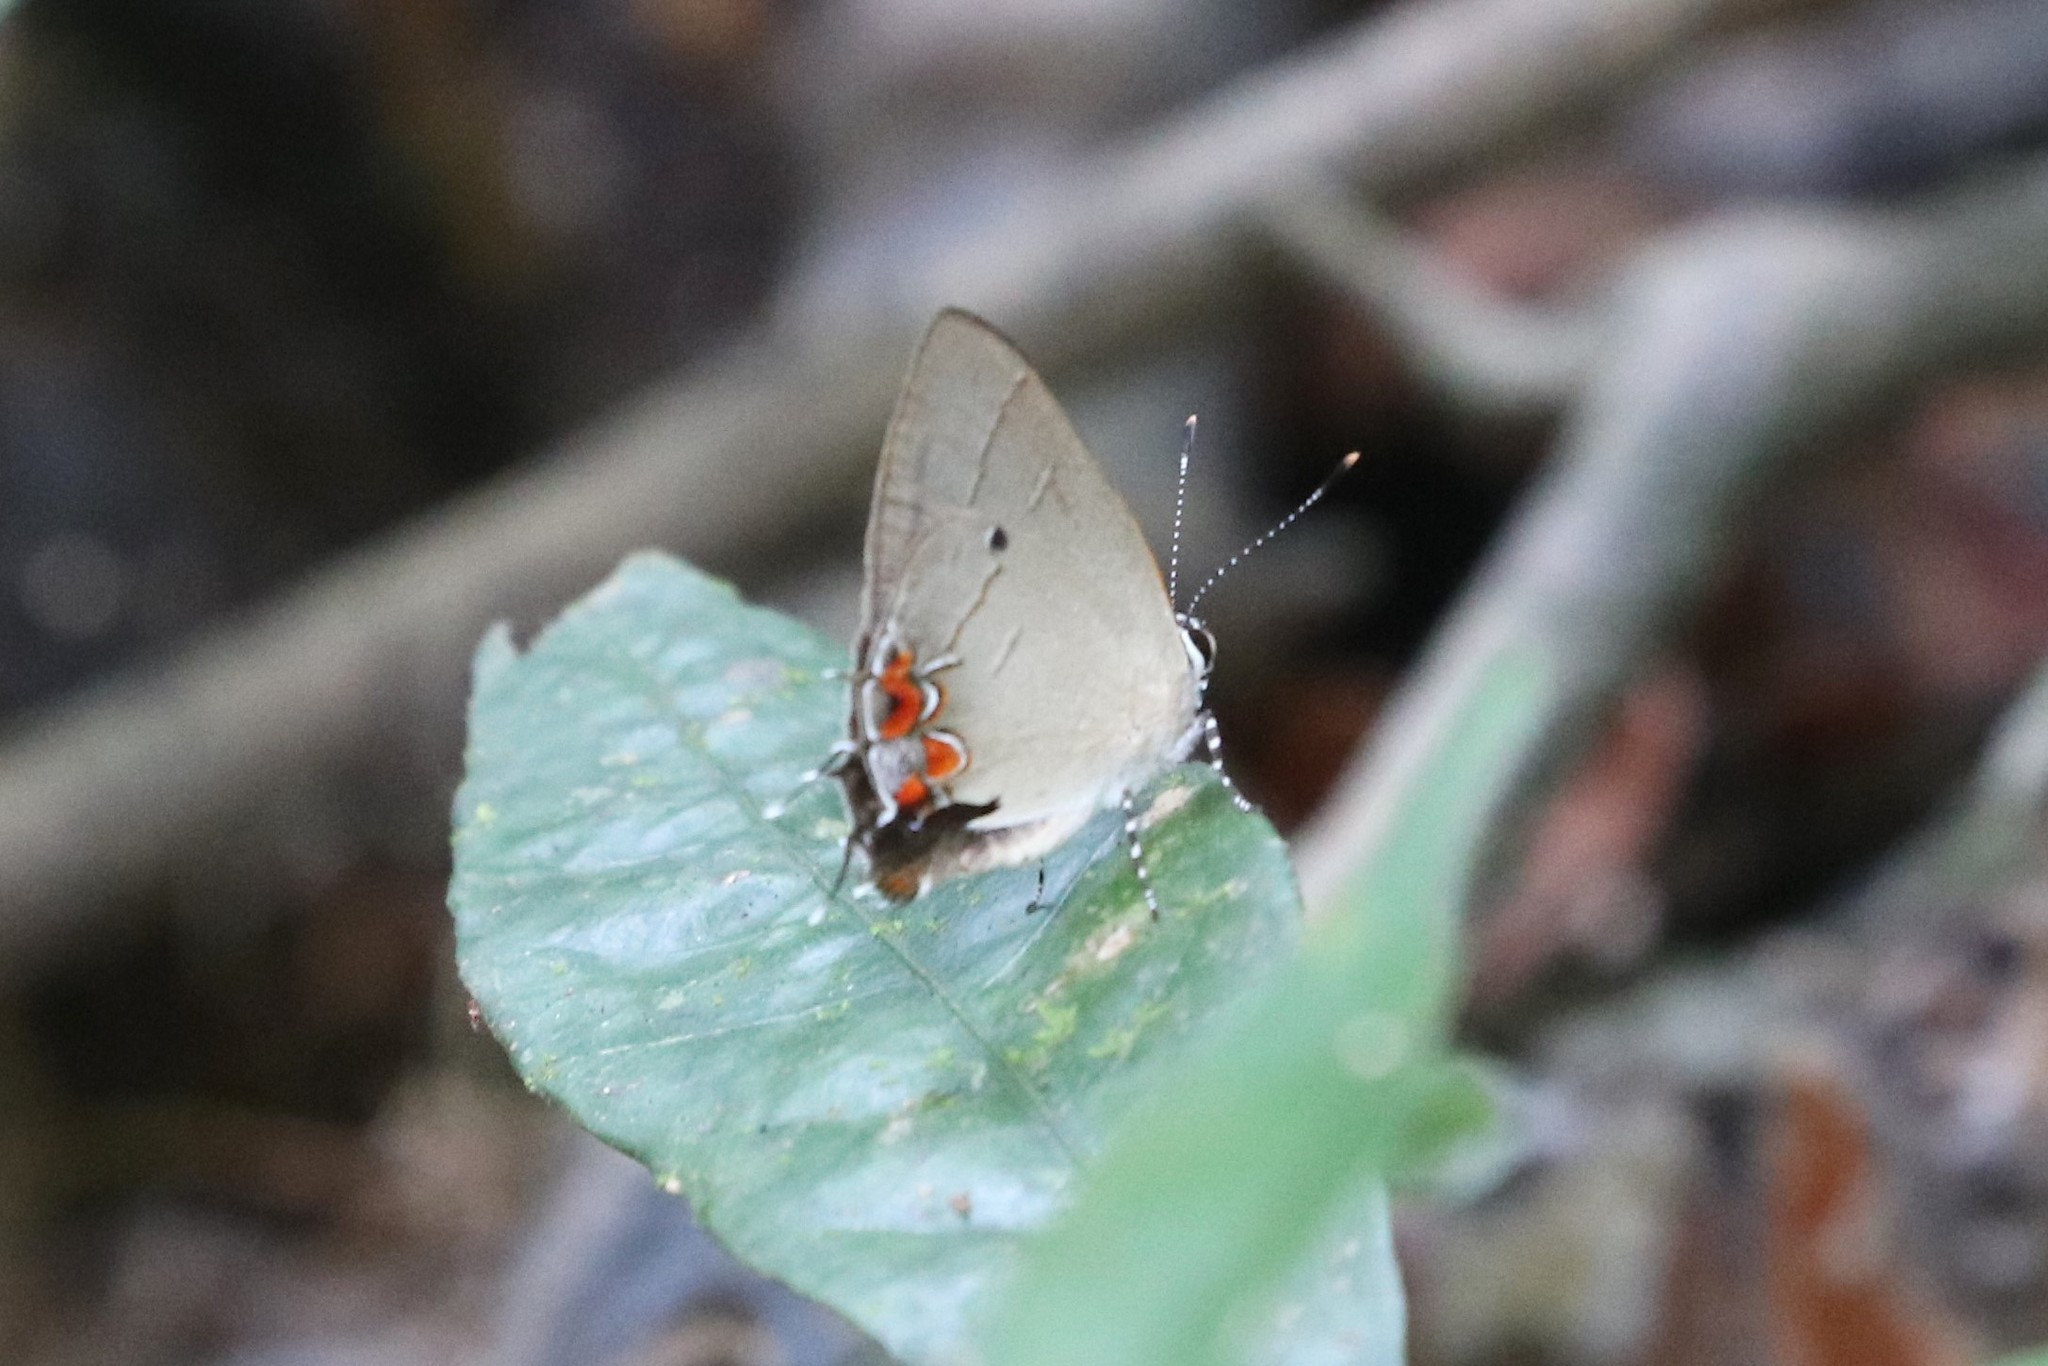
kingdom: Animalia
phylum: Arthropoda
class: Insecta
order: Lepidoptera
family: Lycaenidae
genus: Calycopis
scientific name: Calycopis
